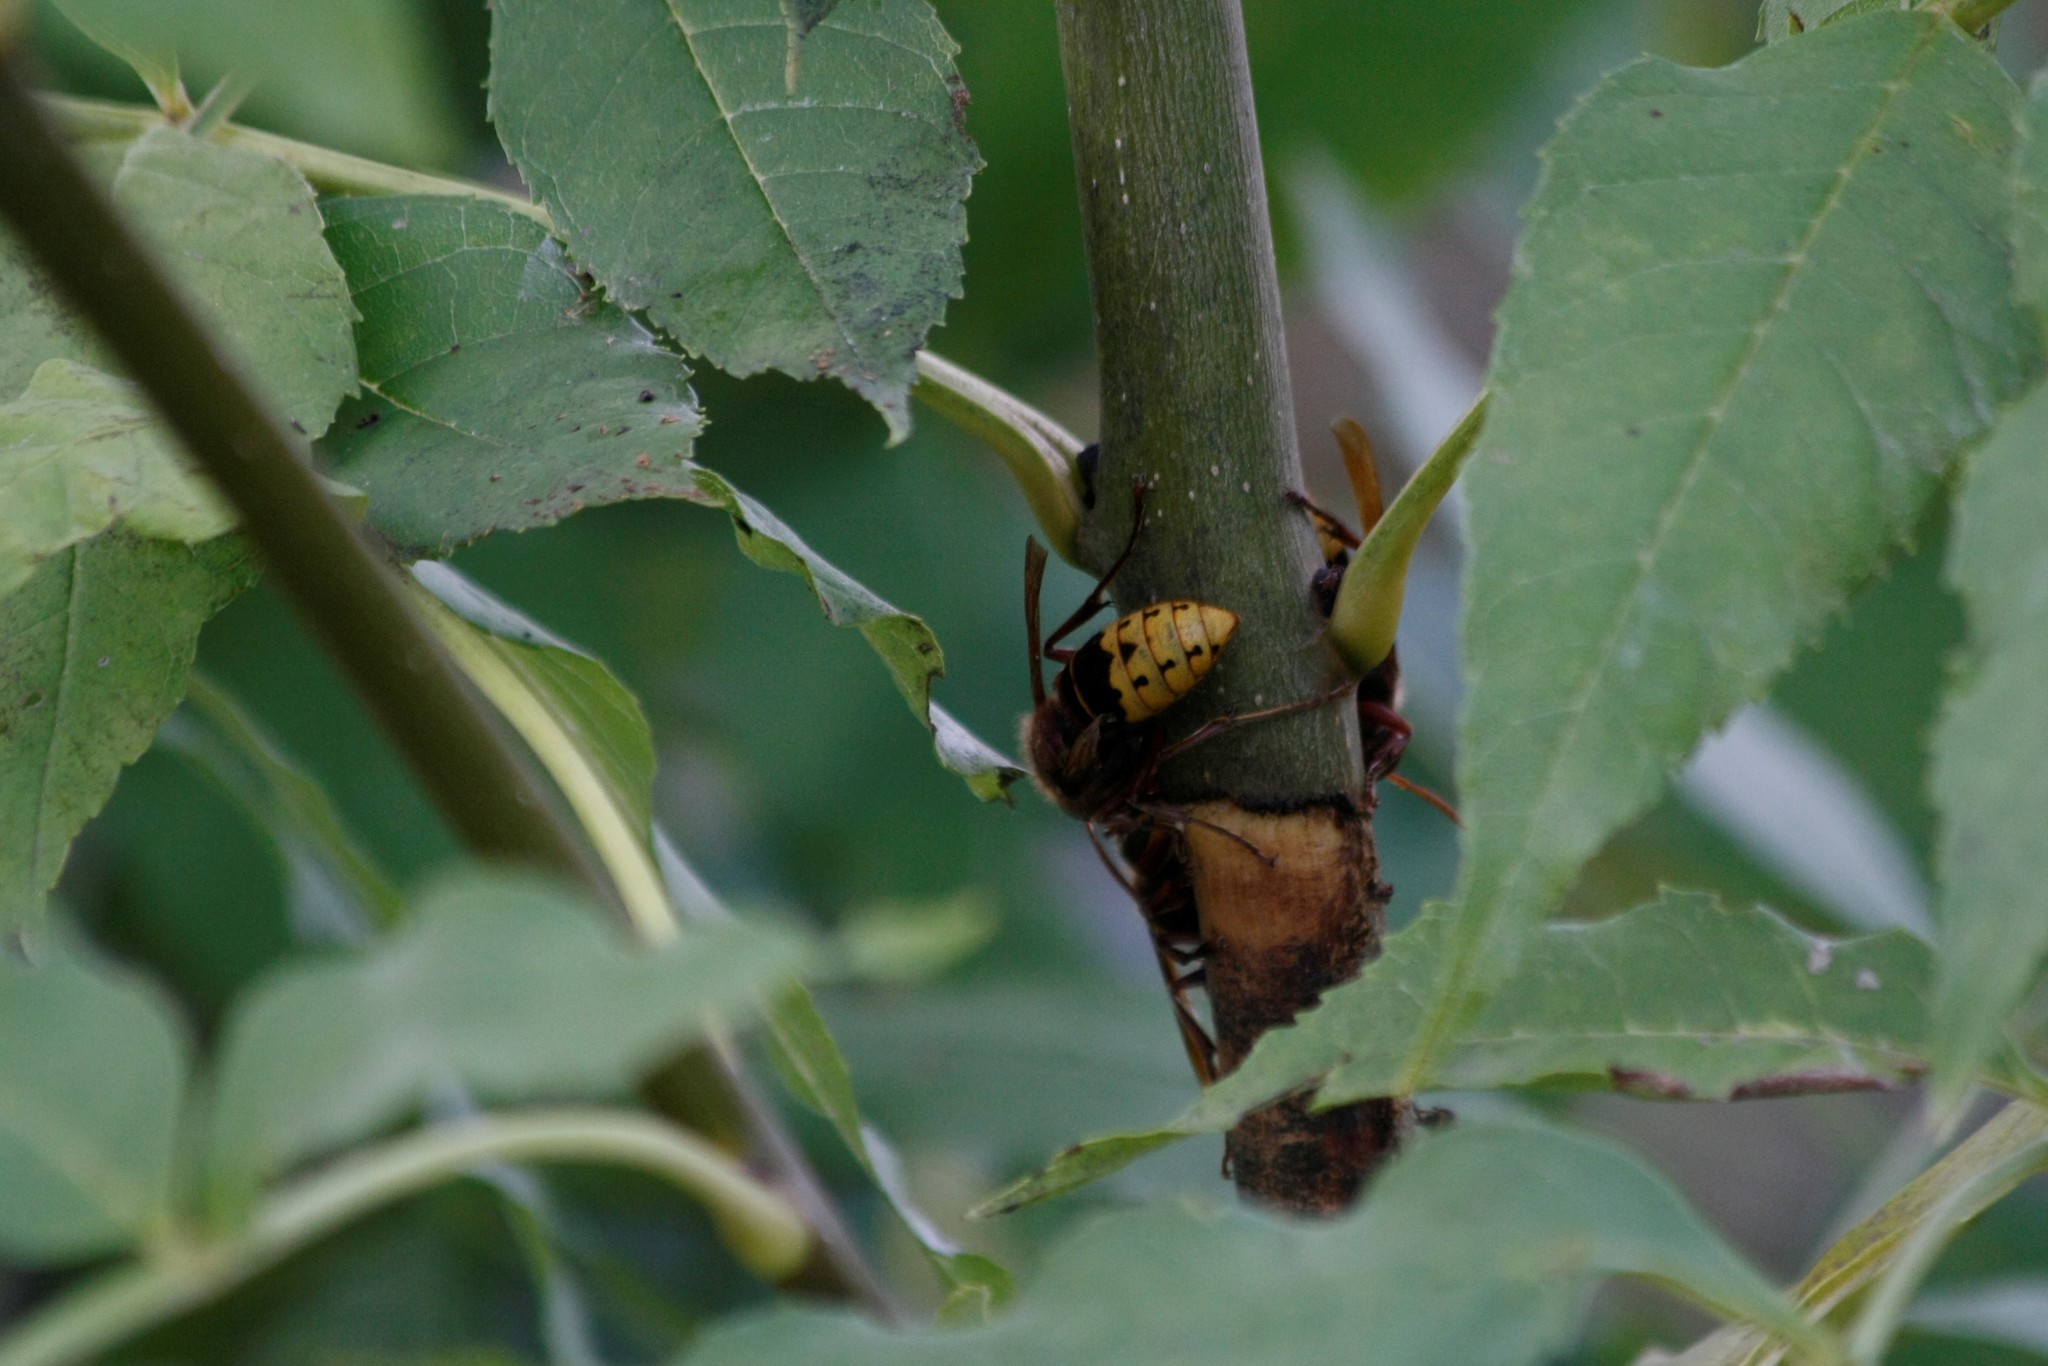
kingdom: Animalia
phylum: Arthropoda
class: Insecta
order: Hymenoptera
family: Vespidae
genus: Vespa
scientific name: Vespa crabro
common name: Hornet
